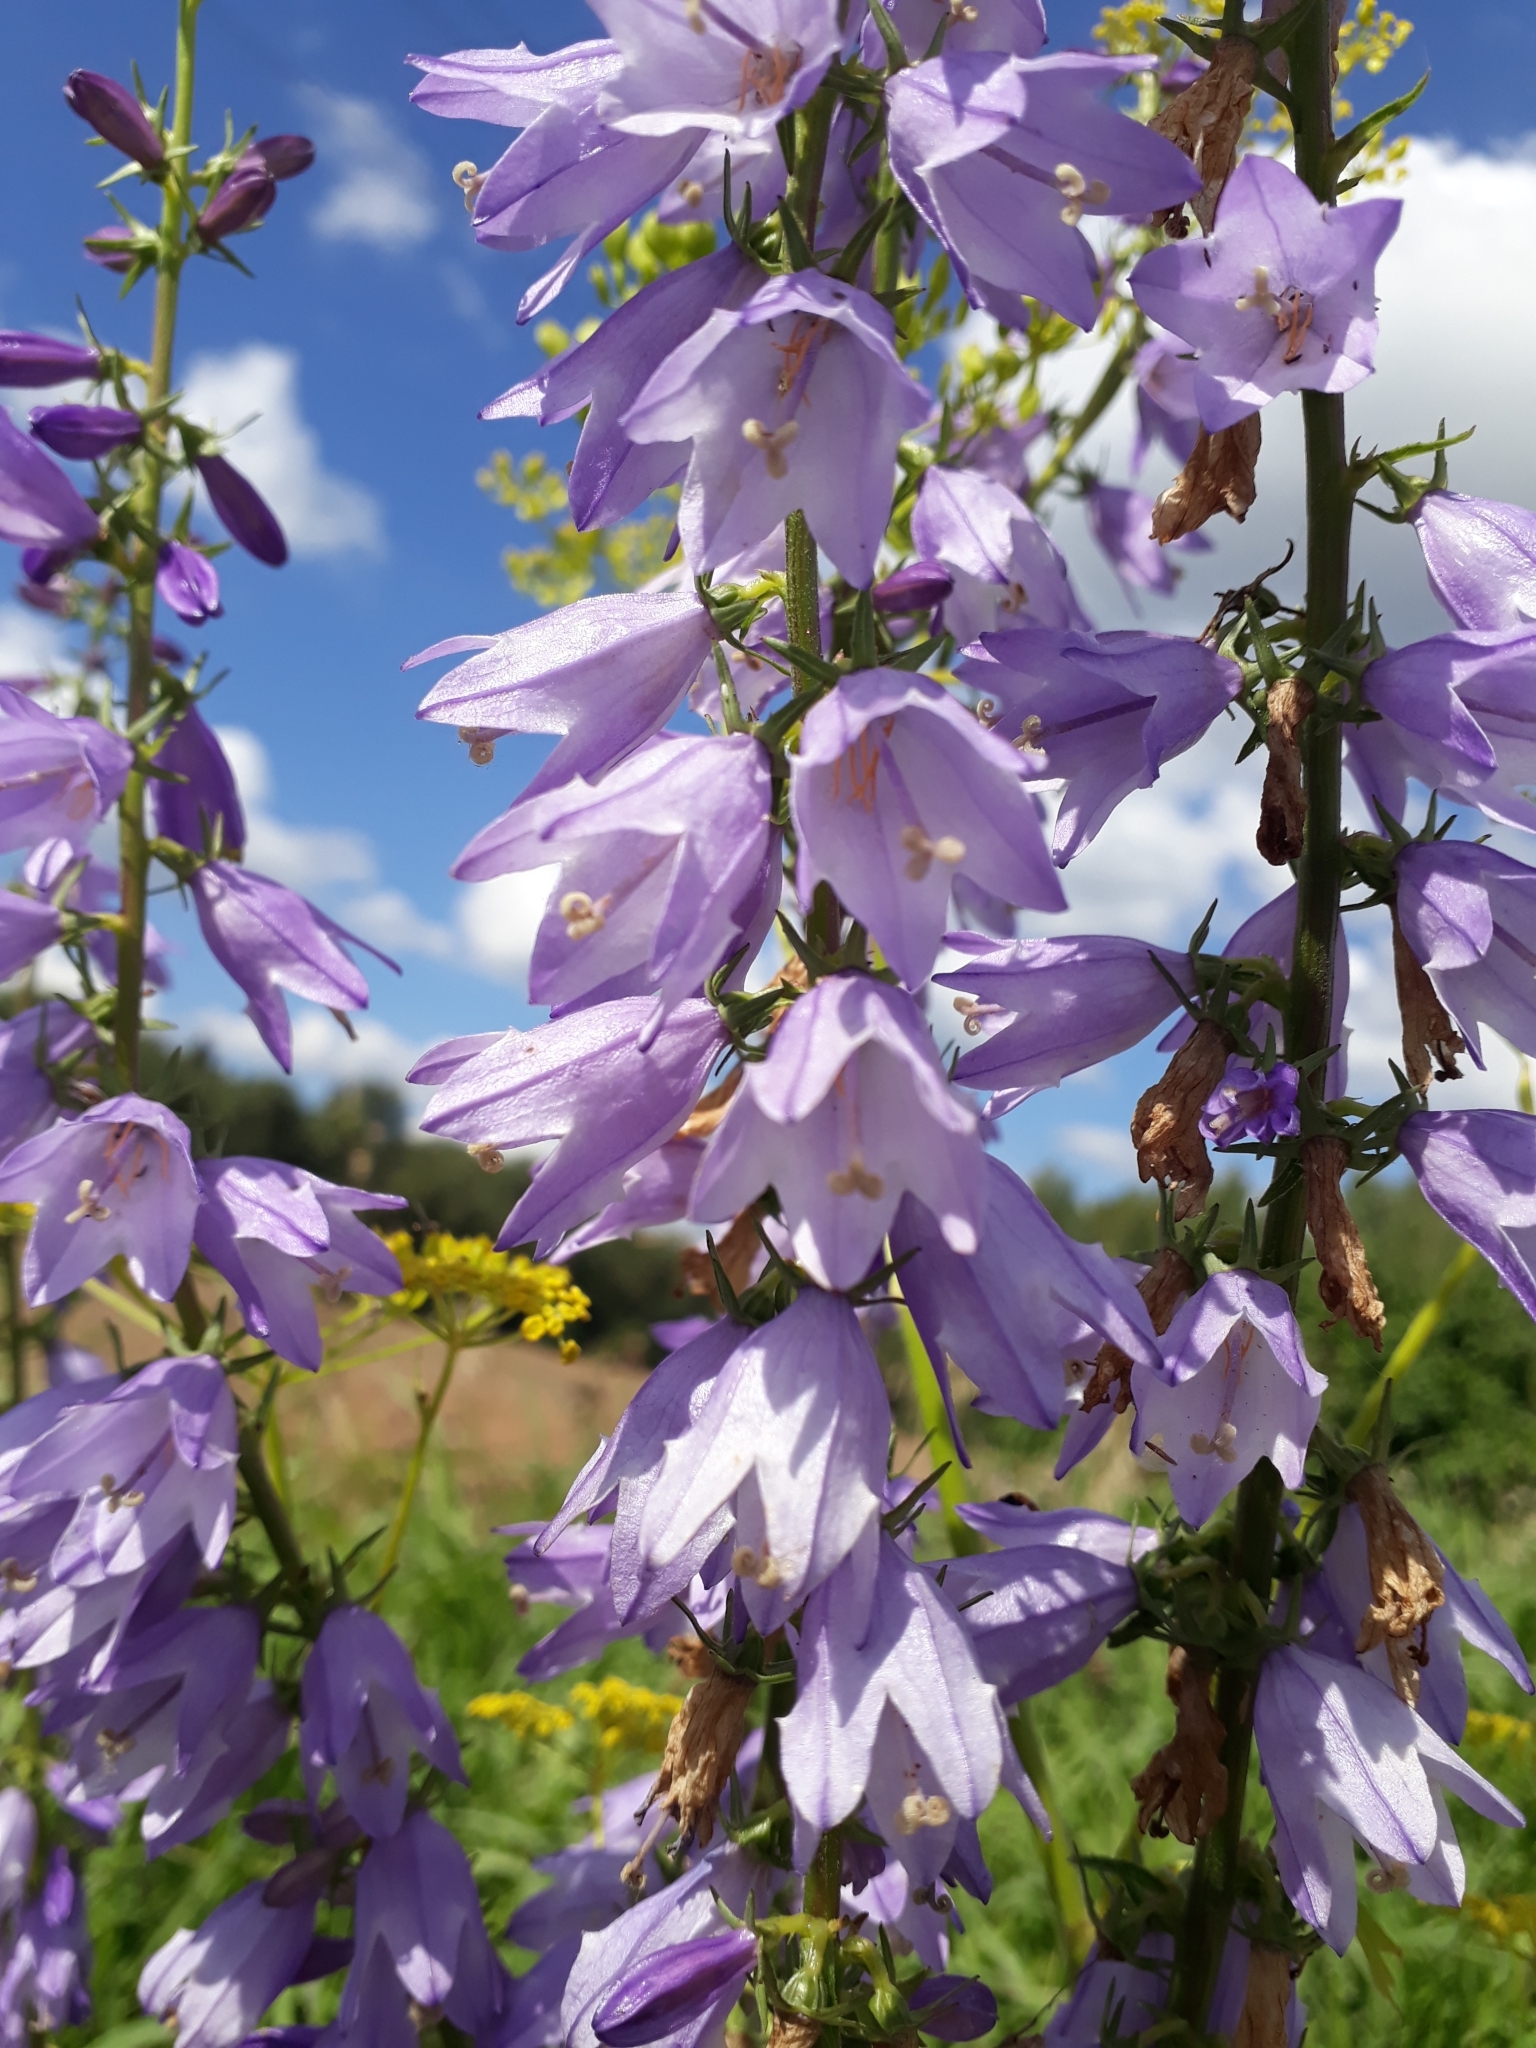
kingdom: Plantae
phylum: Tracheophyta
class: Magnoliopsida
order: Asterales
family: Campanulaceae
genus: Campanula
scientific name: Campanula bononiensis
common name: Pale bellflower
